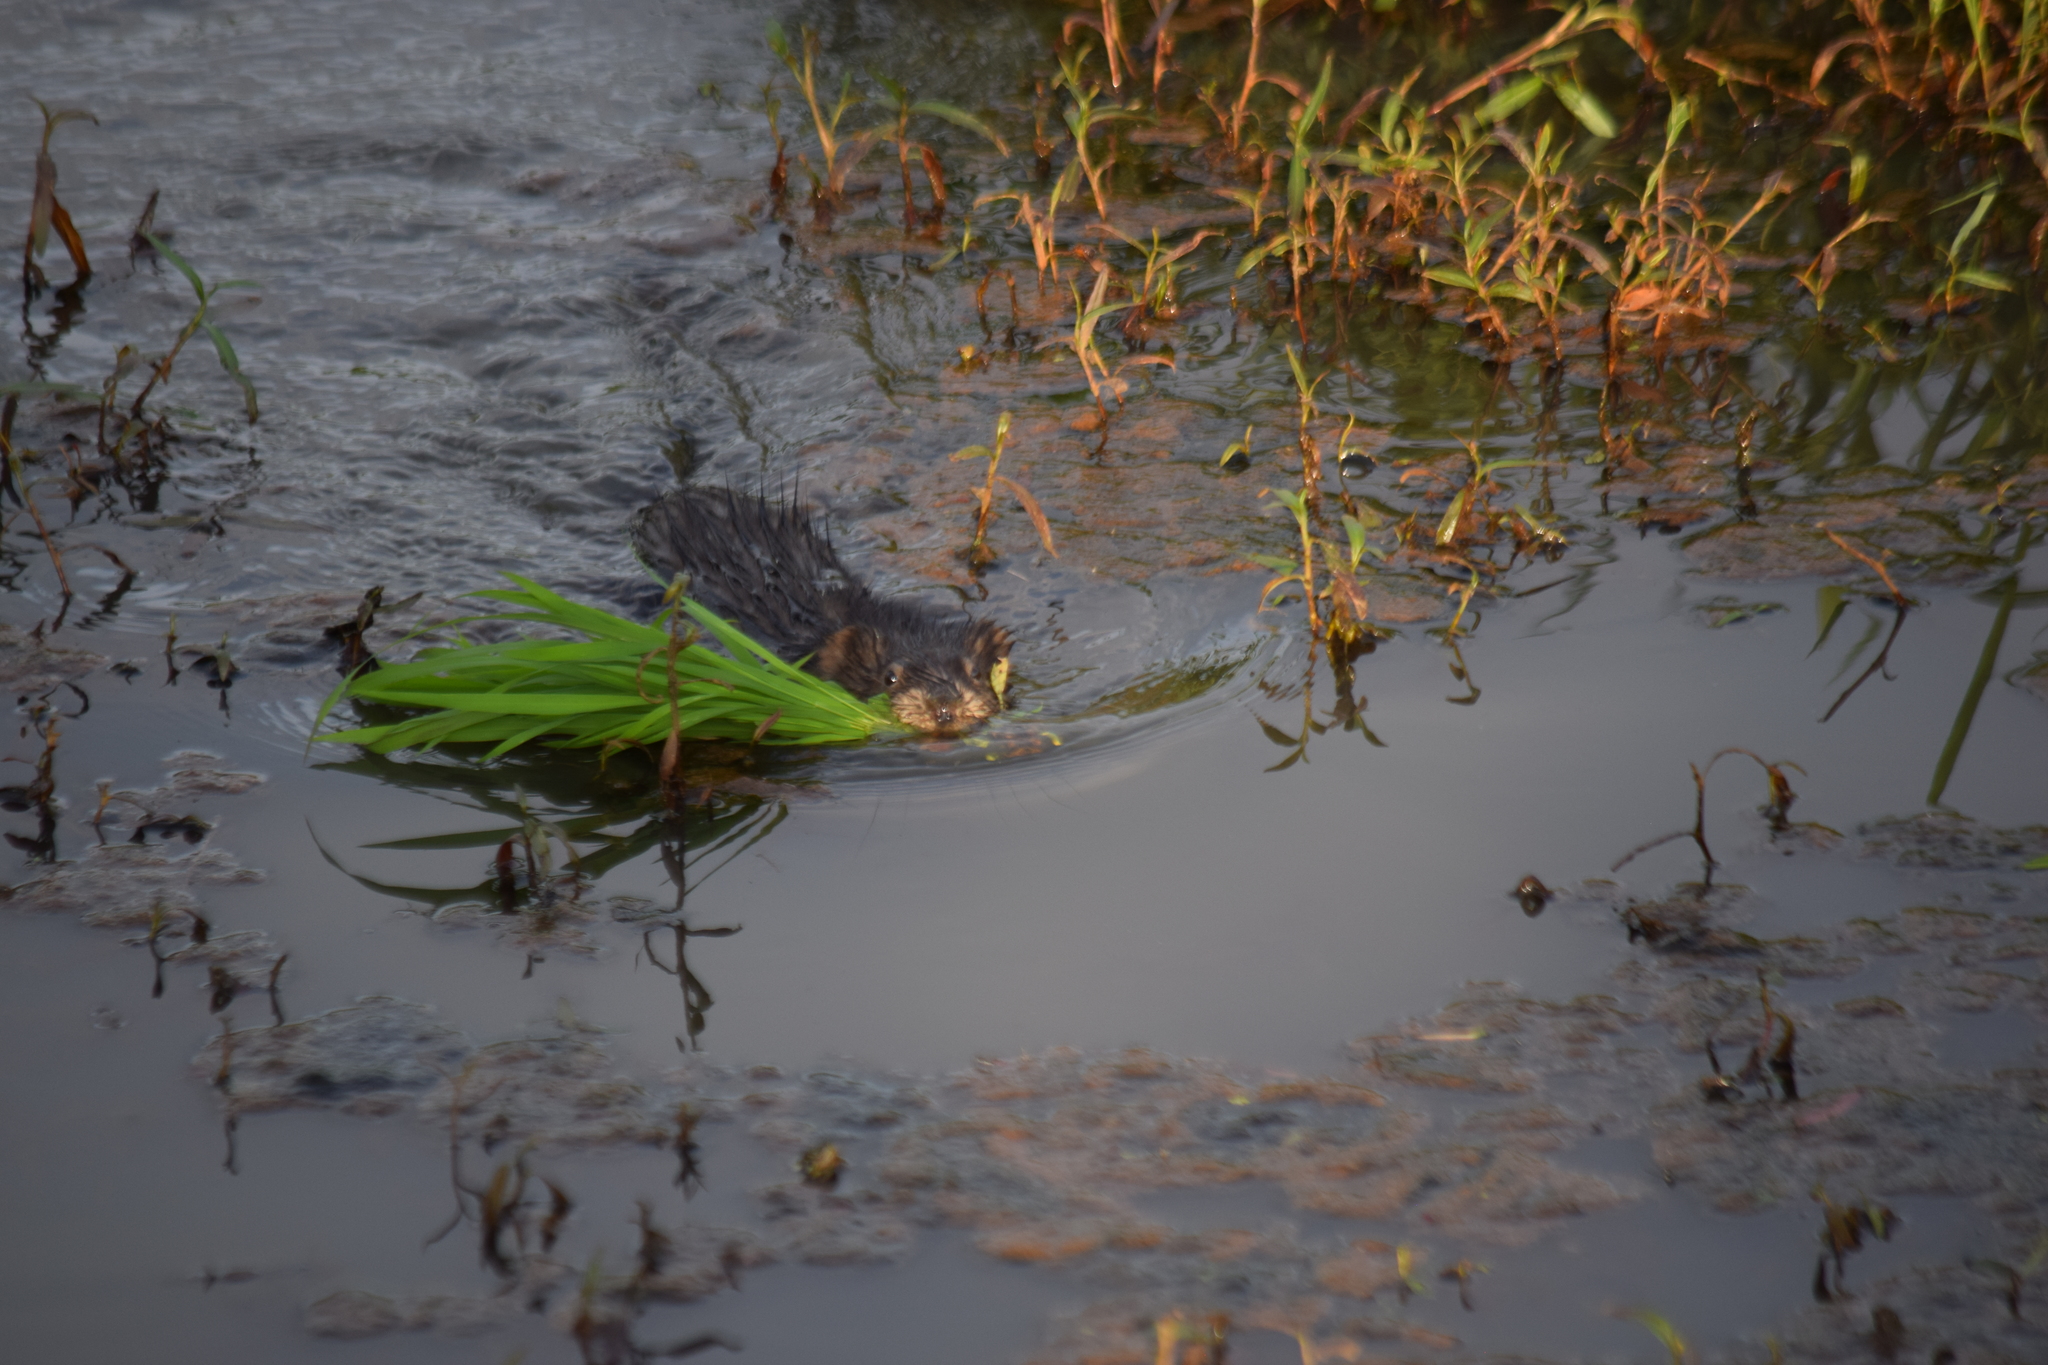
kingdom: Animalia
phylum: Chordata
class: Mammalia
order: Rodentia
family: Cricetidae
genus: Ondatra
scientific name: Ondatra zibethicus
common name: Muskrat
